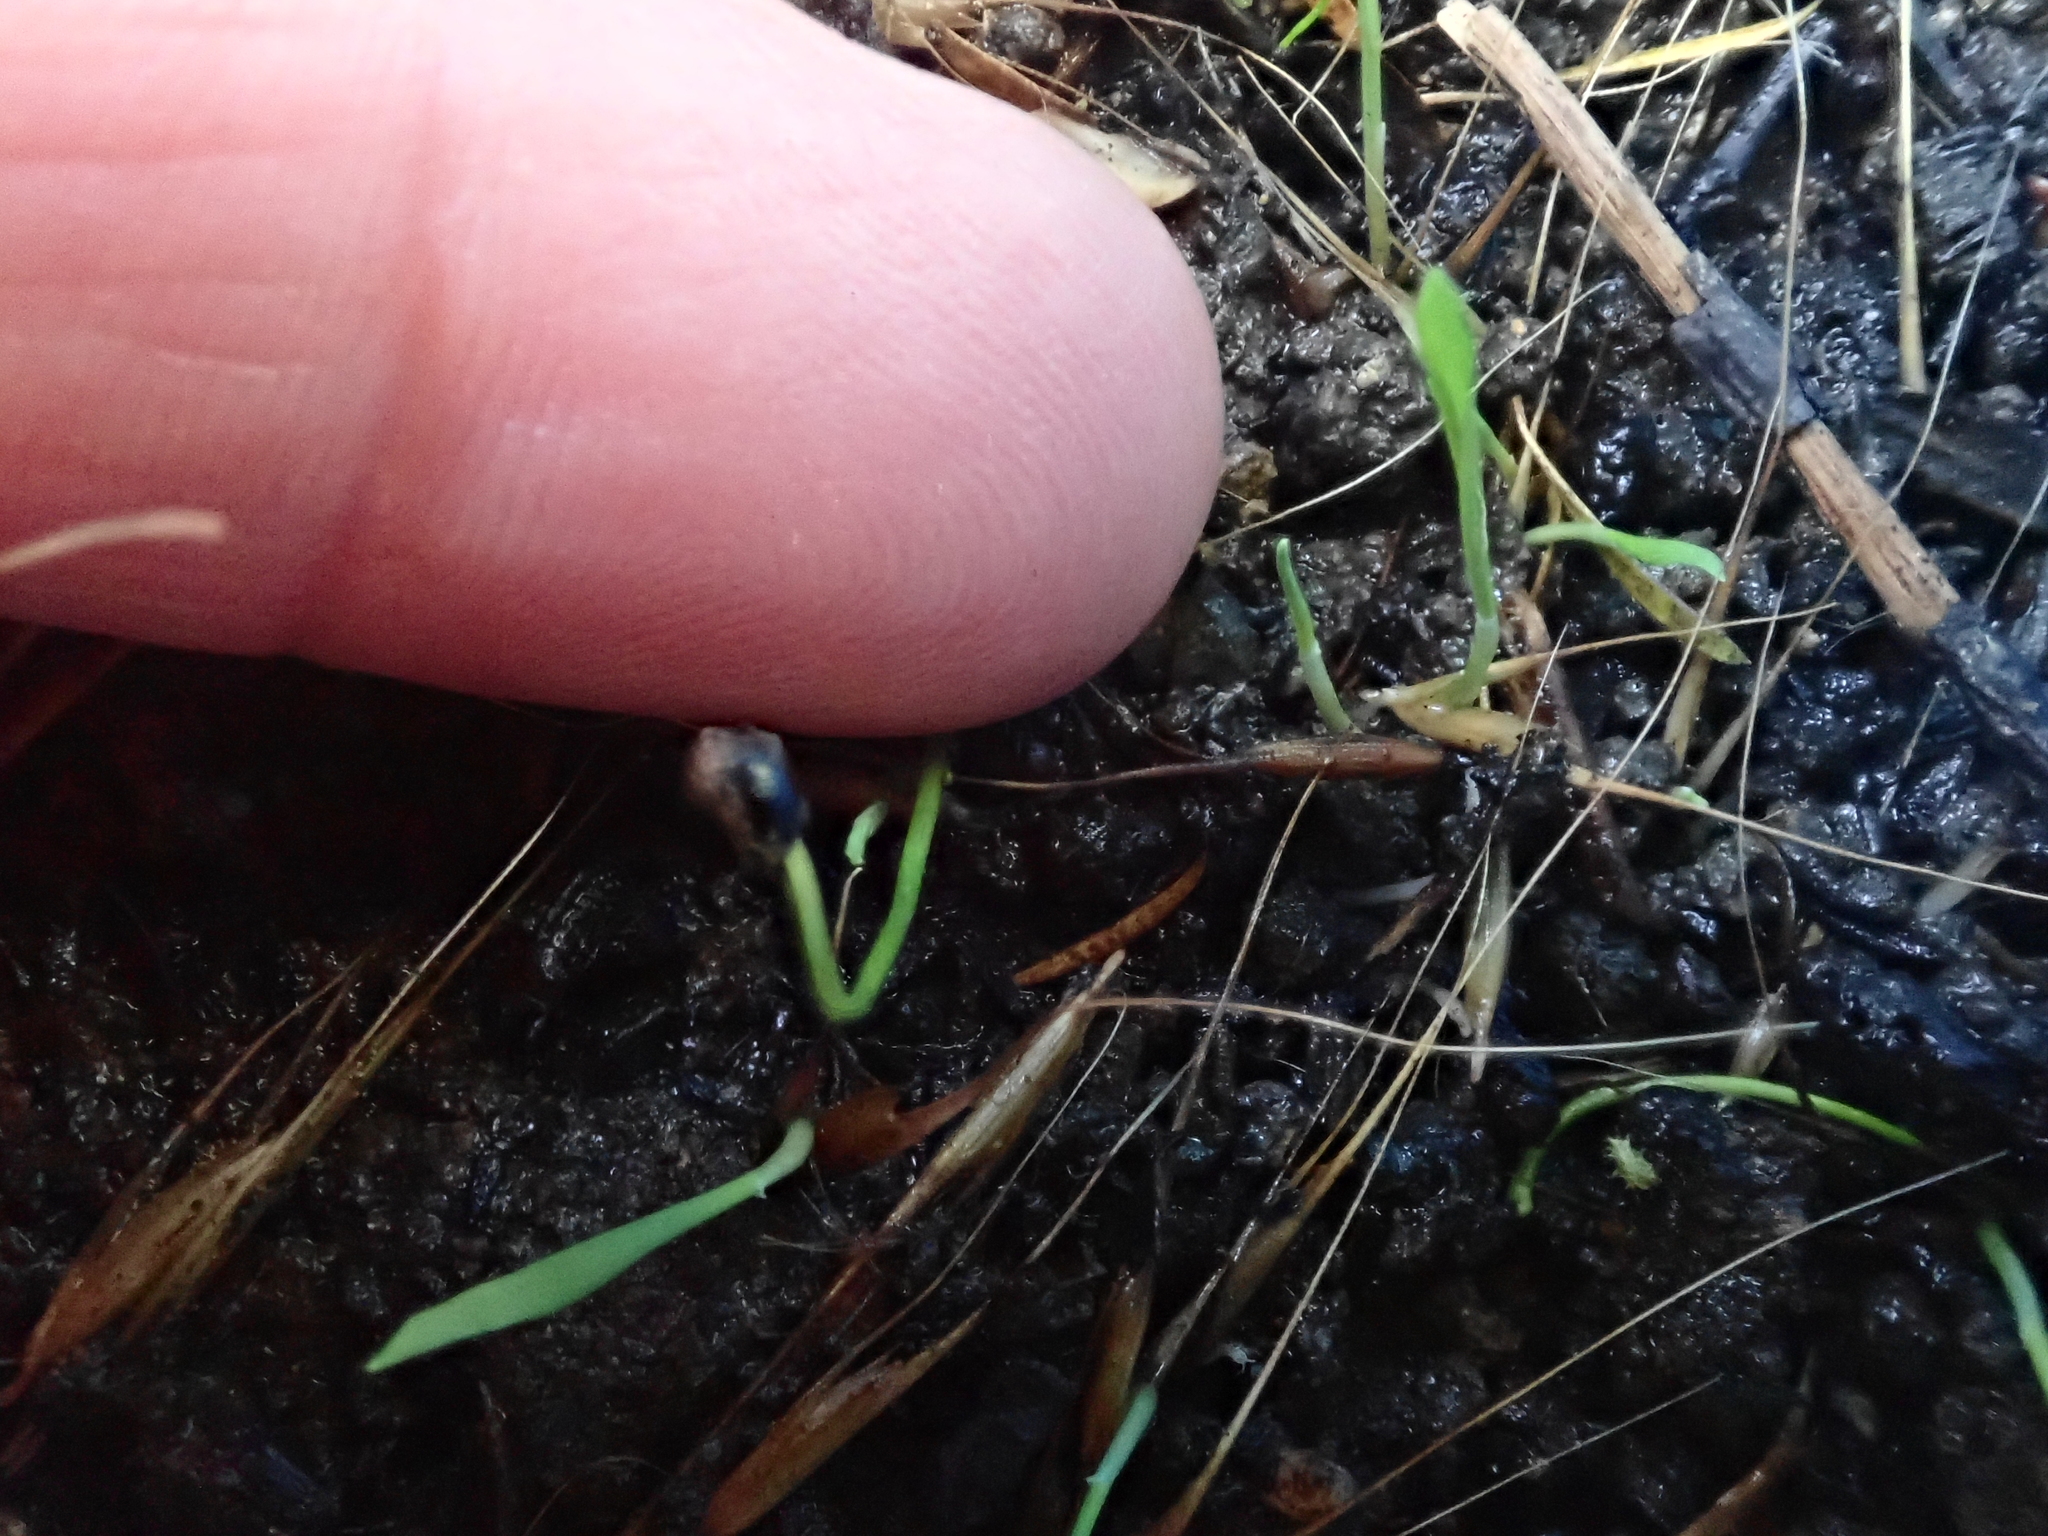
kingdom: Plantae
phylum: Tracheophyta
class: Liliopsida
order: Poales
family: Poaceae
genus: Microlaena
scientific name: Microlaena stipoides
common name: Meadow ricegrass
